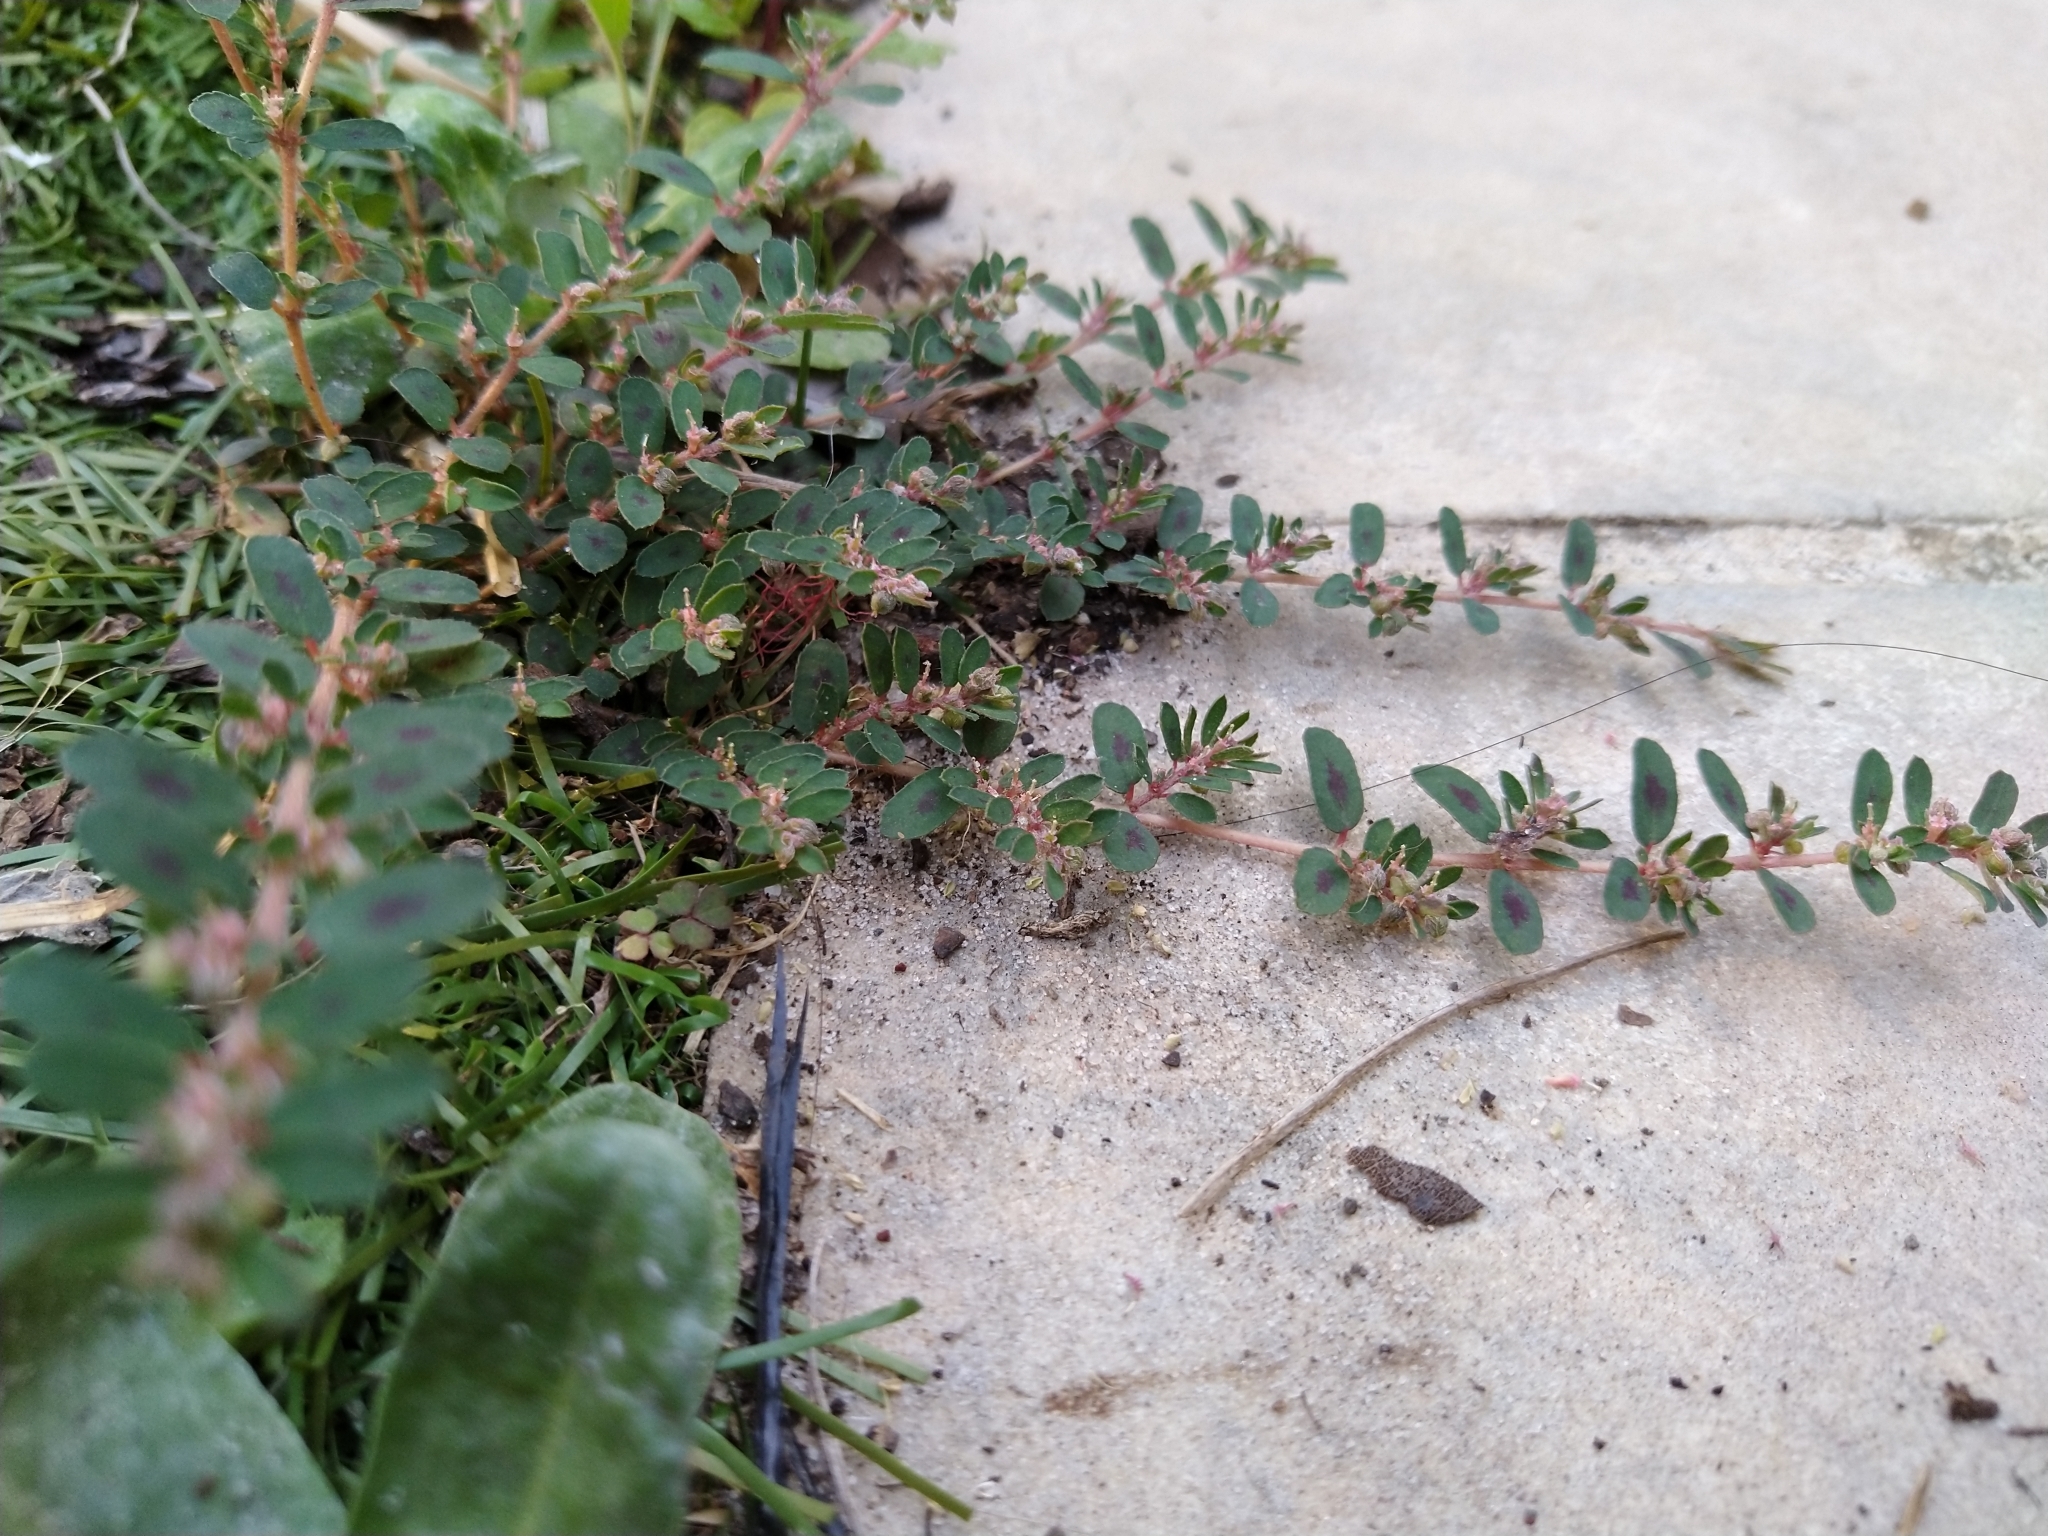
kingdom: Plantae
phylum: Tracheophyta
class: Magnoliopsida
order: Malpighiales
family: Euphorbiaceae
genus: Euphorbia
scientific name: Euphorbia maculata
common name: Spotted spurge
